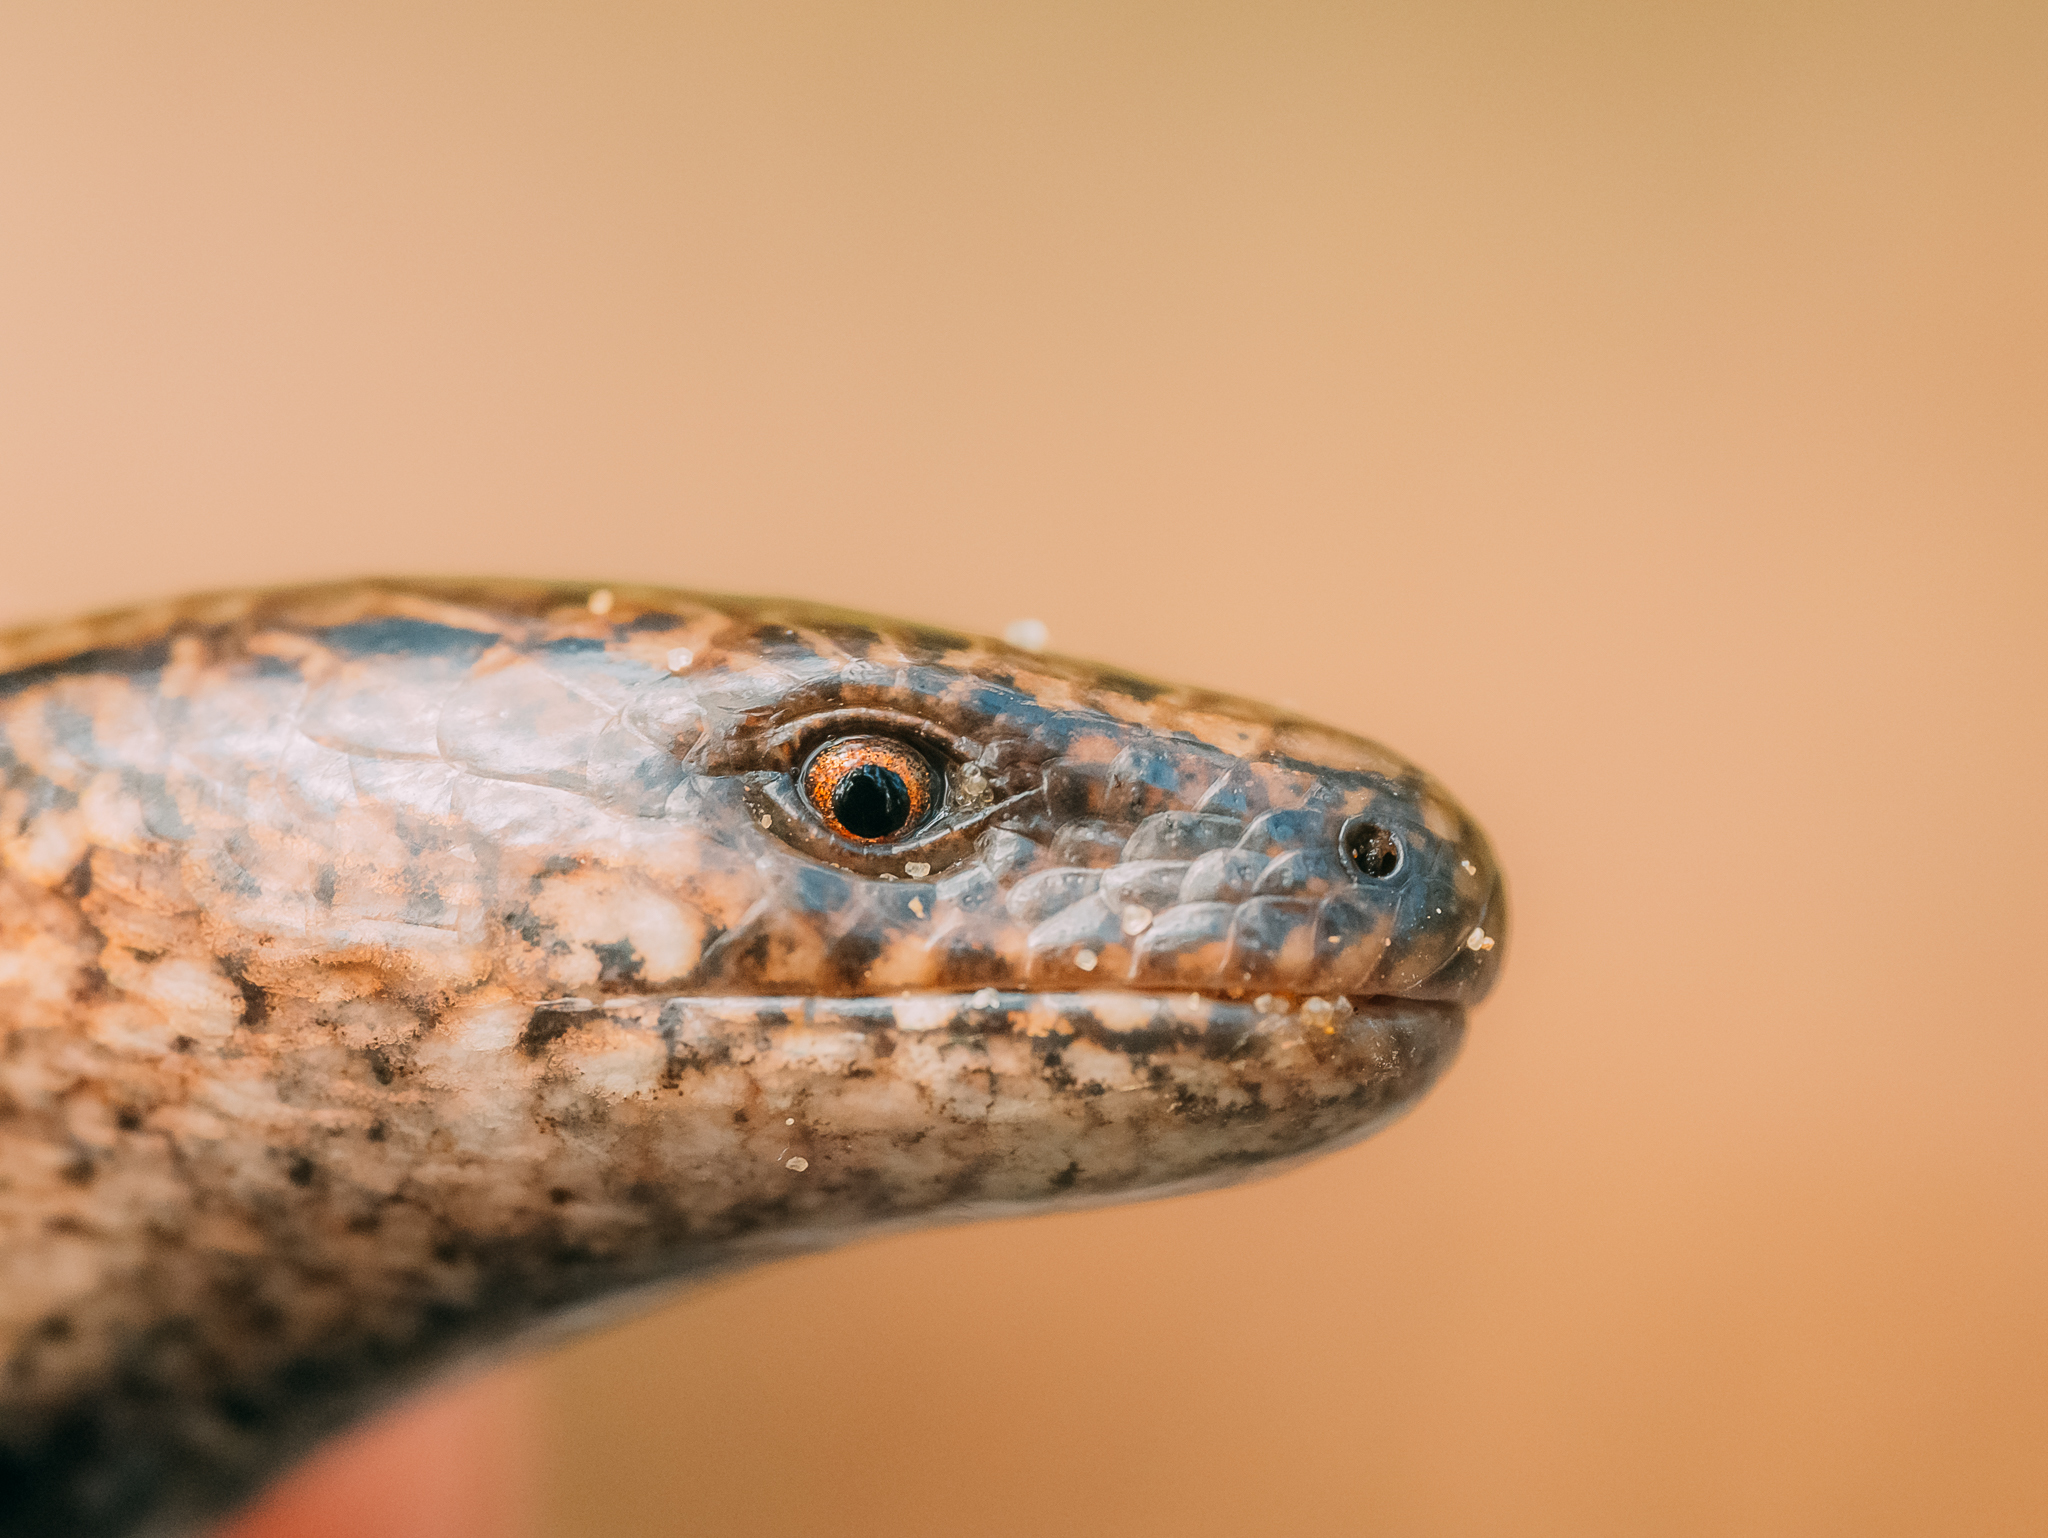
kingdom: Animalia
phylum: Chordata
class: Squamata
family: Anguidae
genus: Anguis
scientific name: Anguis colchica
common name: Slow worm
